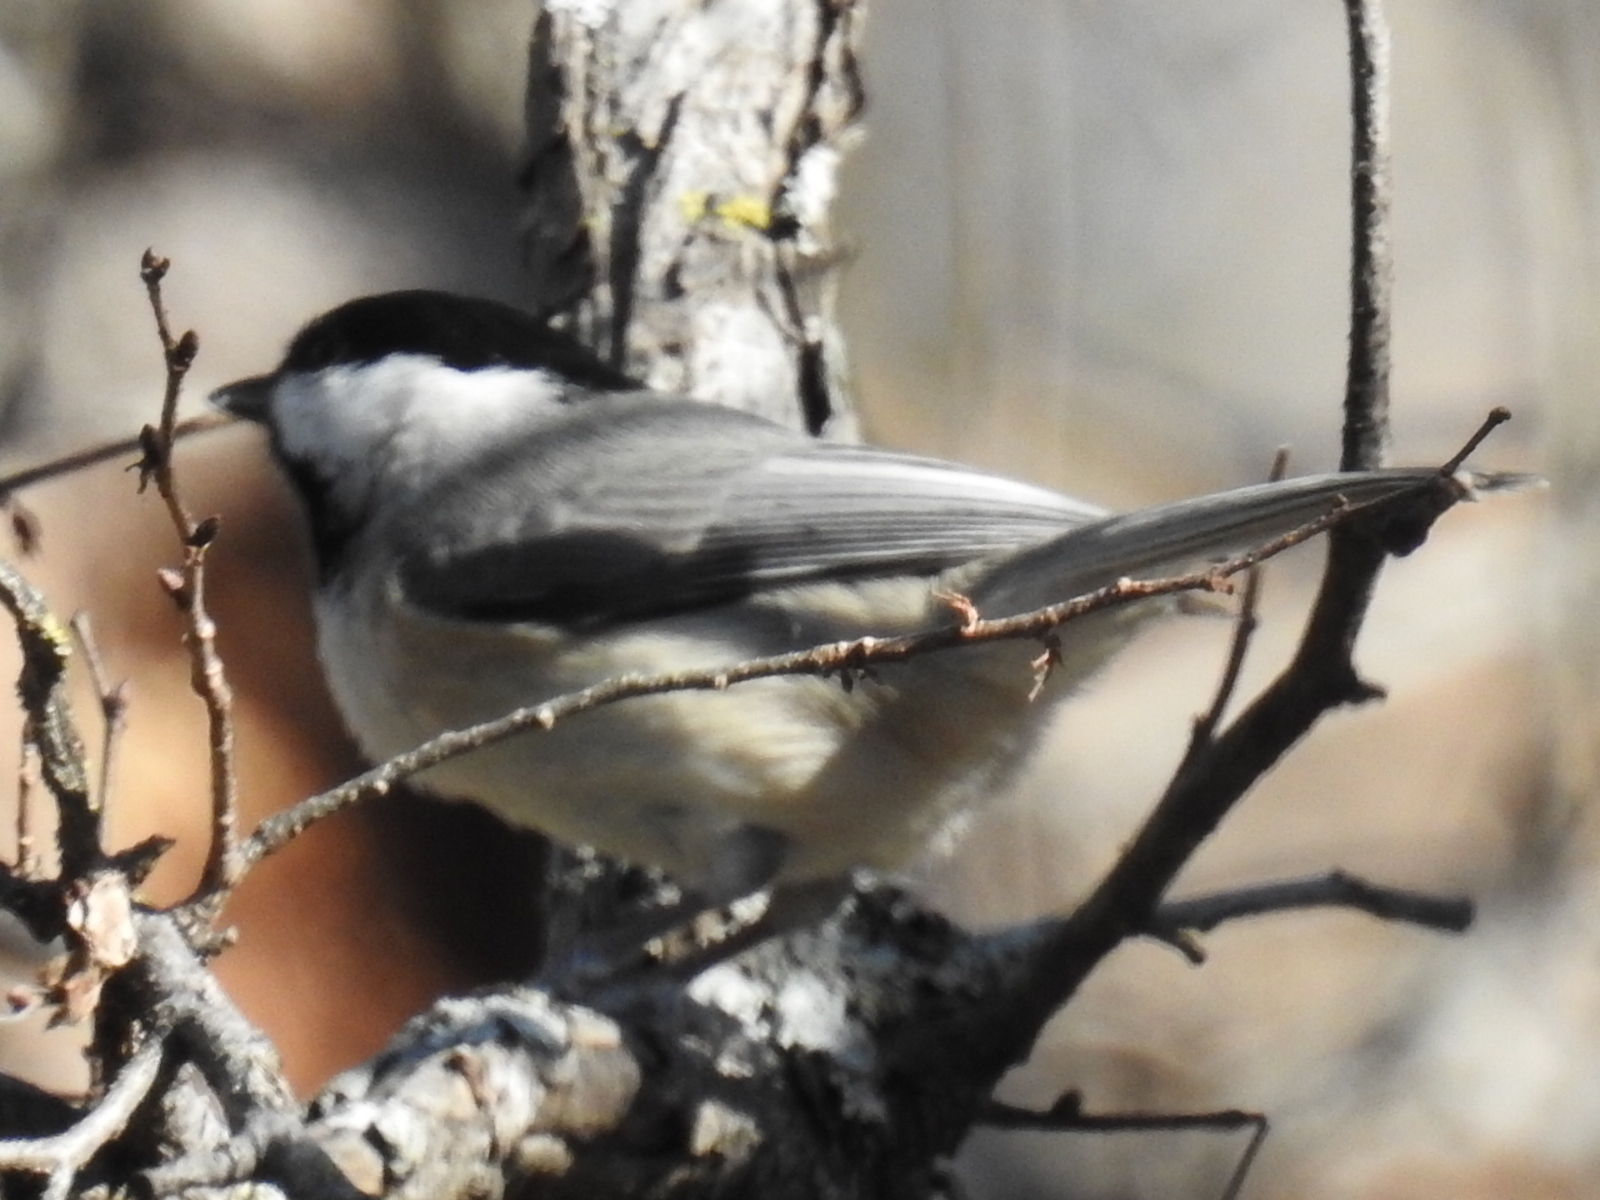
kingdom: Animalia
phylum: Chordata
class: Aves
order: Passeriformes
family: Paridae
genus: Poecile
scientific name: Poecile carolinensis
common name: Carolina chickadee
